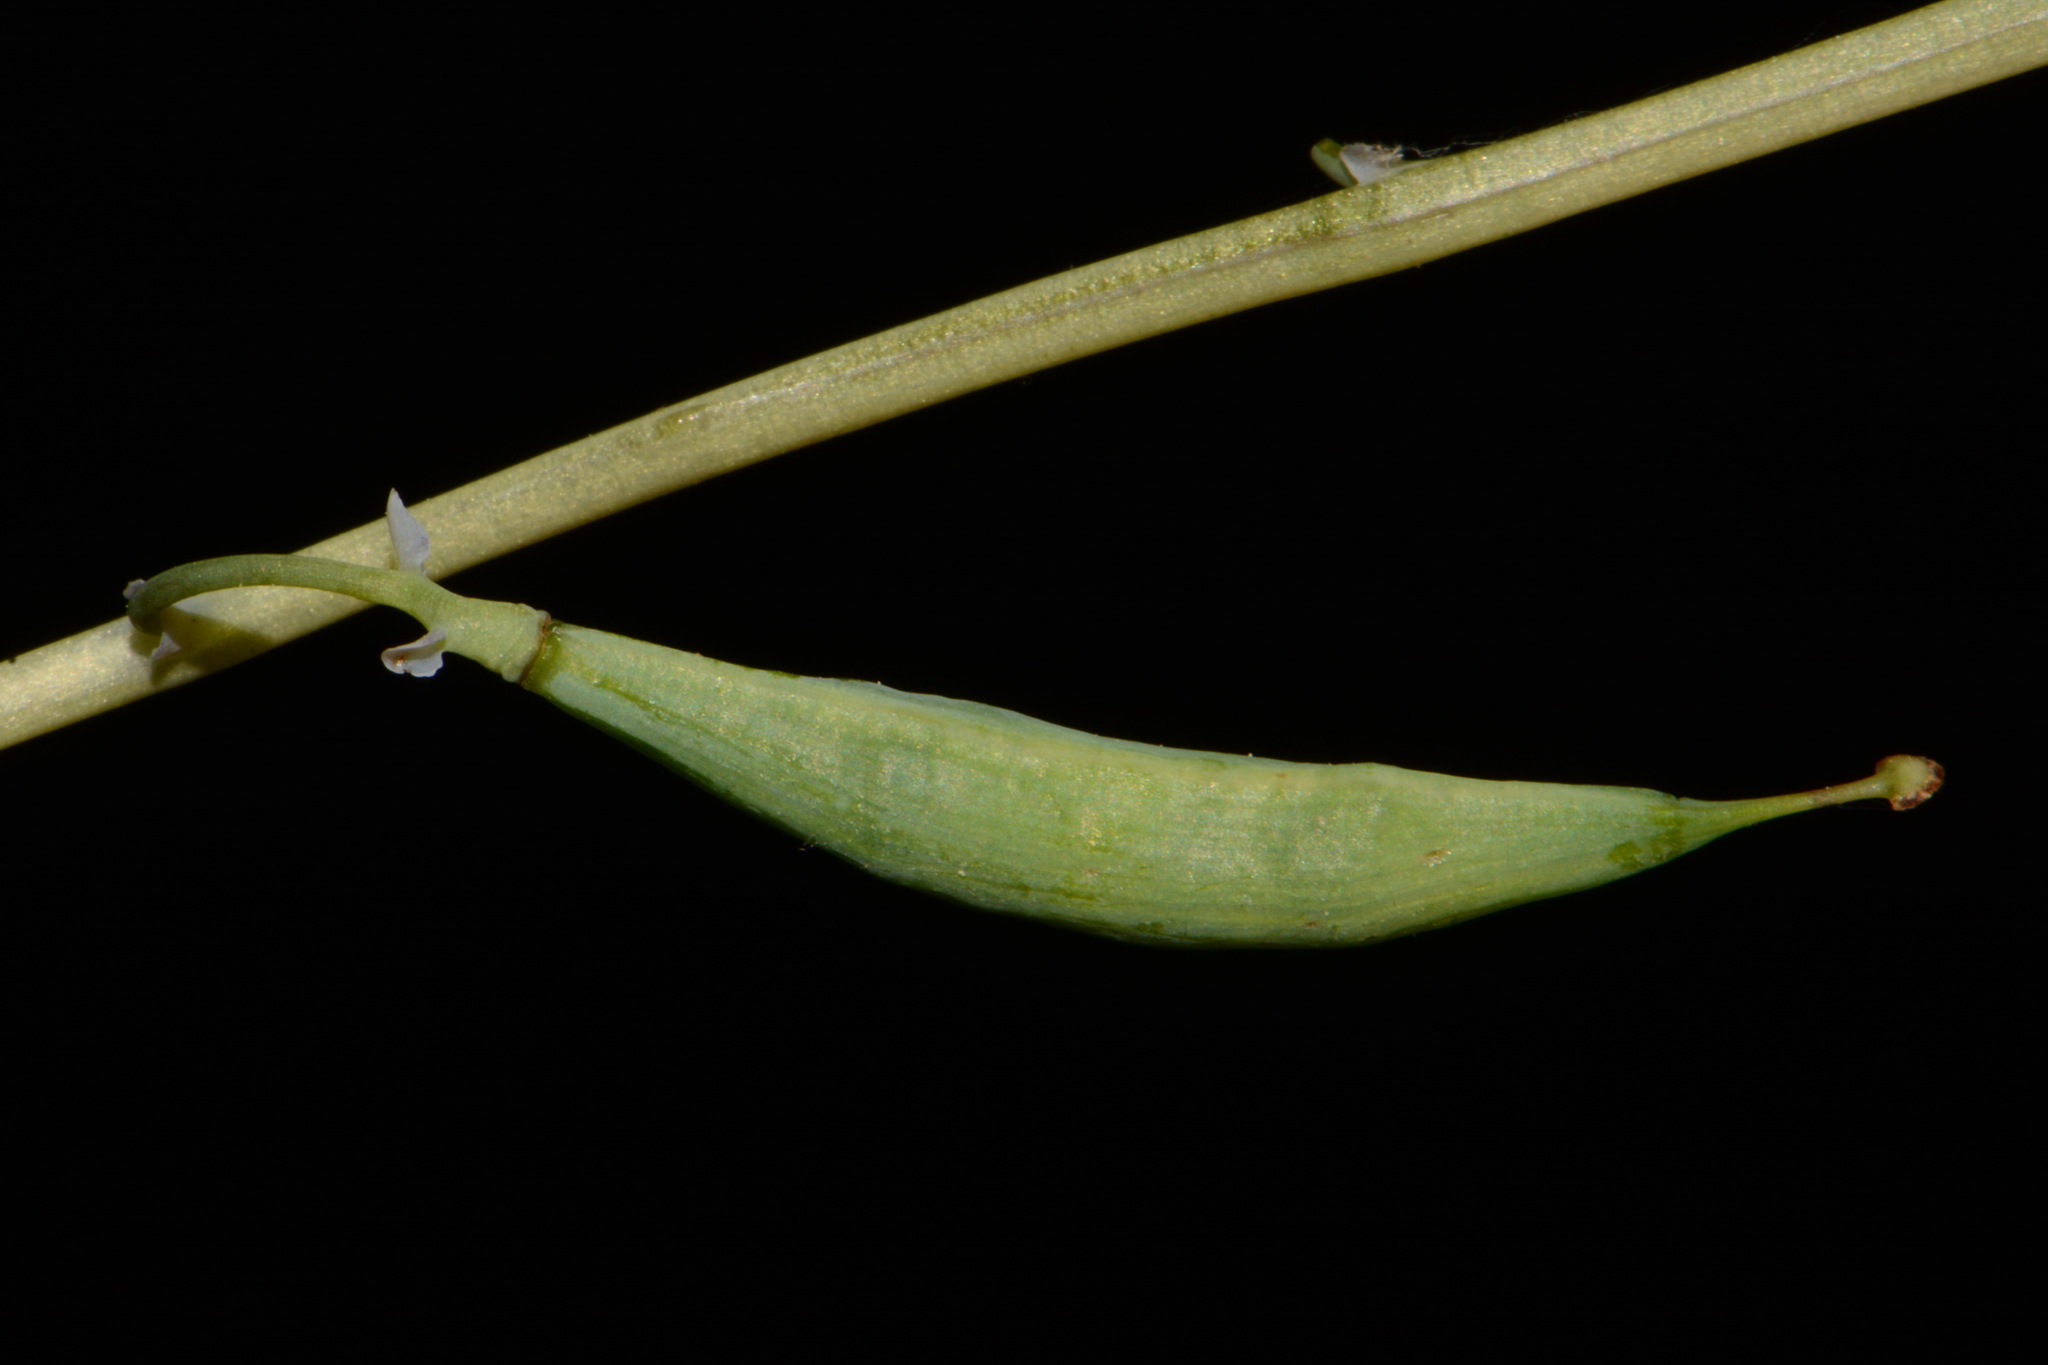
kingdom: Plantae
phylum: Tracheophyta
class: Magnoliopsida
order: Ranunculales
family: Papaveraceae
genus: Dicentra
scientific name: Dicentra cucullaria
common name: Dutchman's breeches
